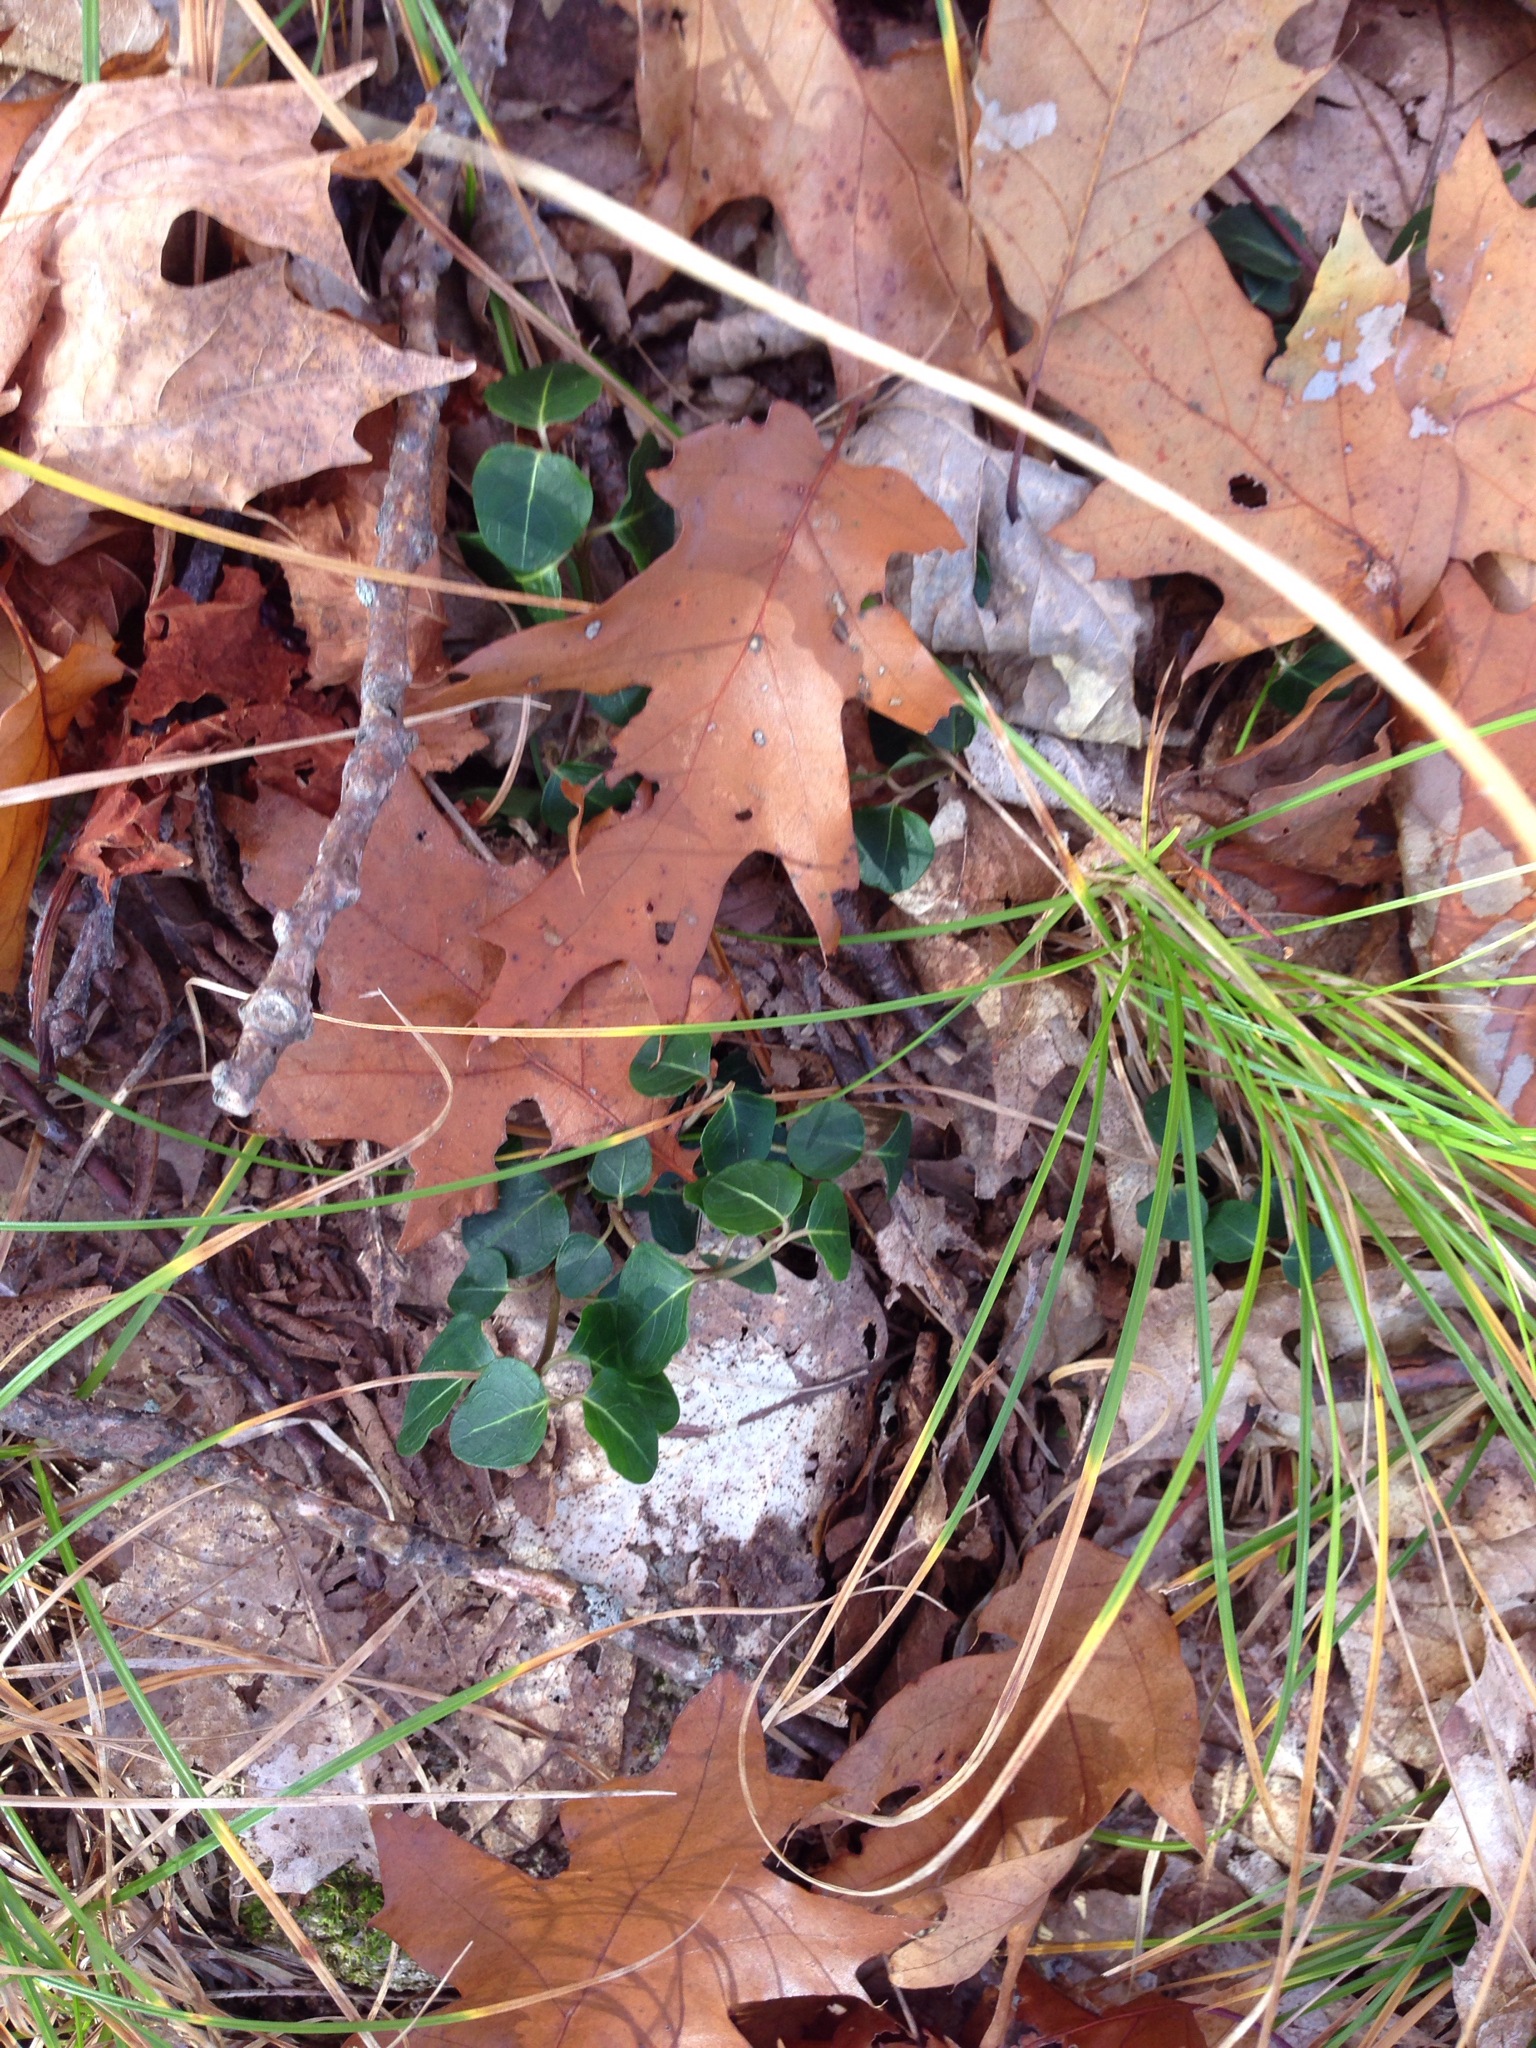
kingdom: Plantae
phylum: Tracheophyta
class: Magnoliopsida
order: Gentianales
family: Rubiaceae
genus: Mitchella
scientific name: Mitchella repens
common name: Partridge-berry
